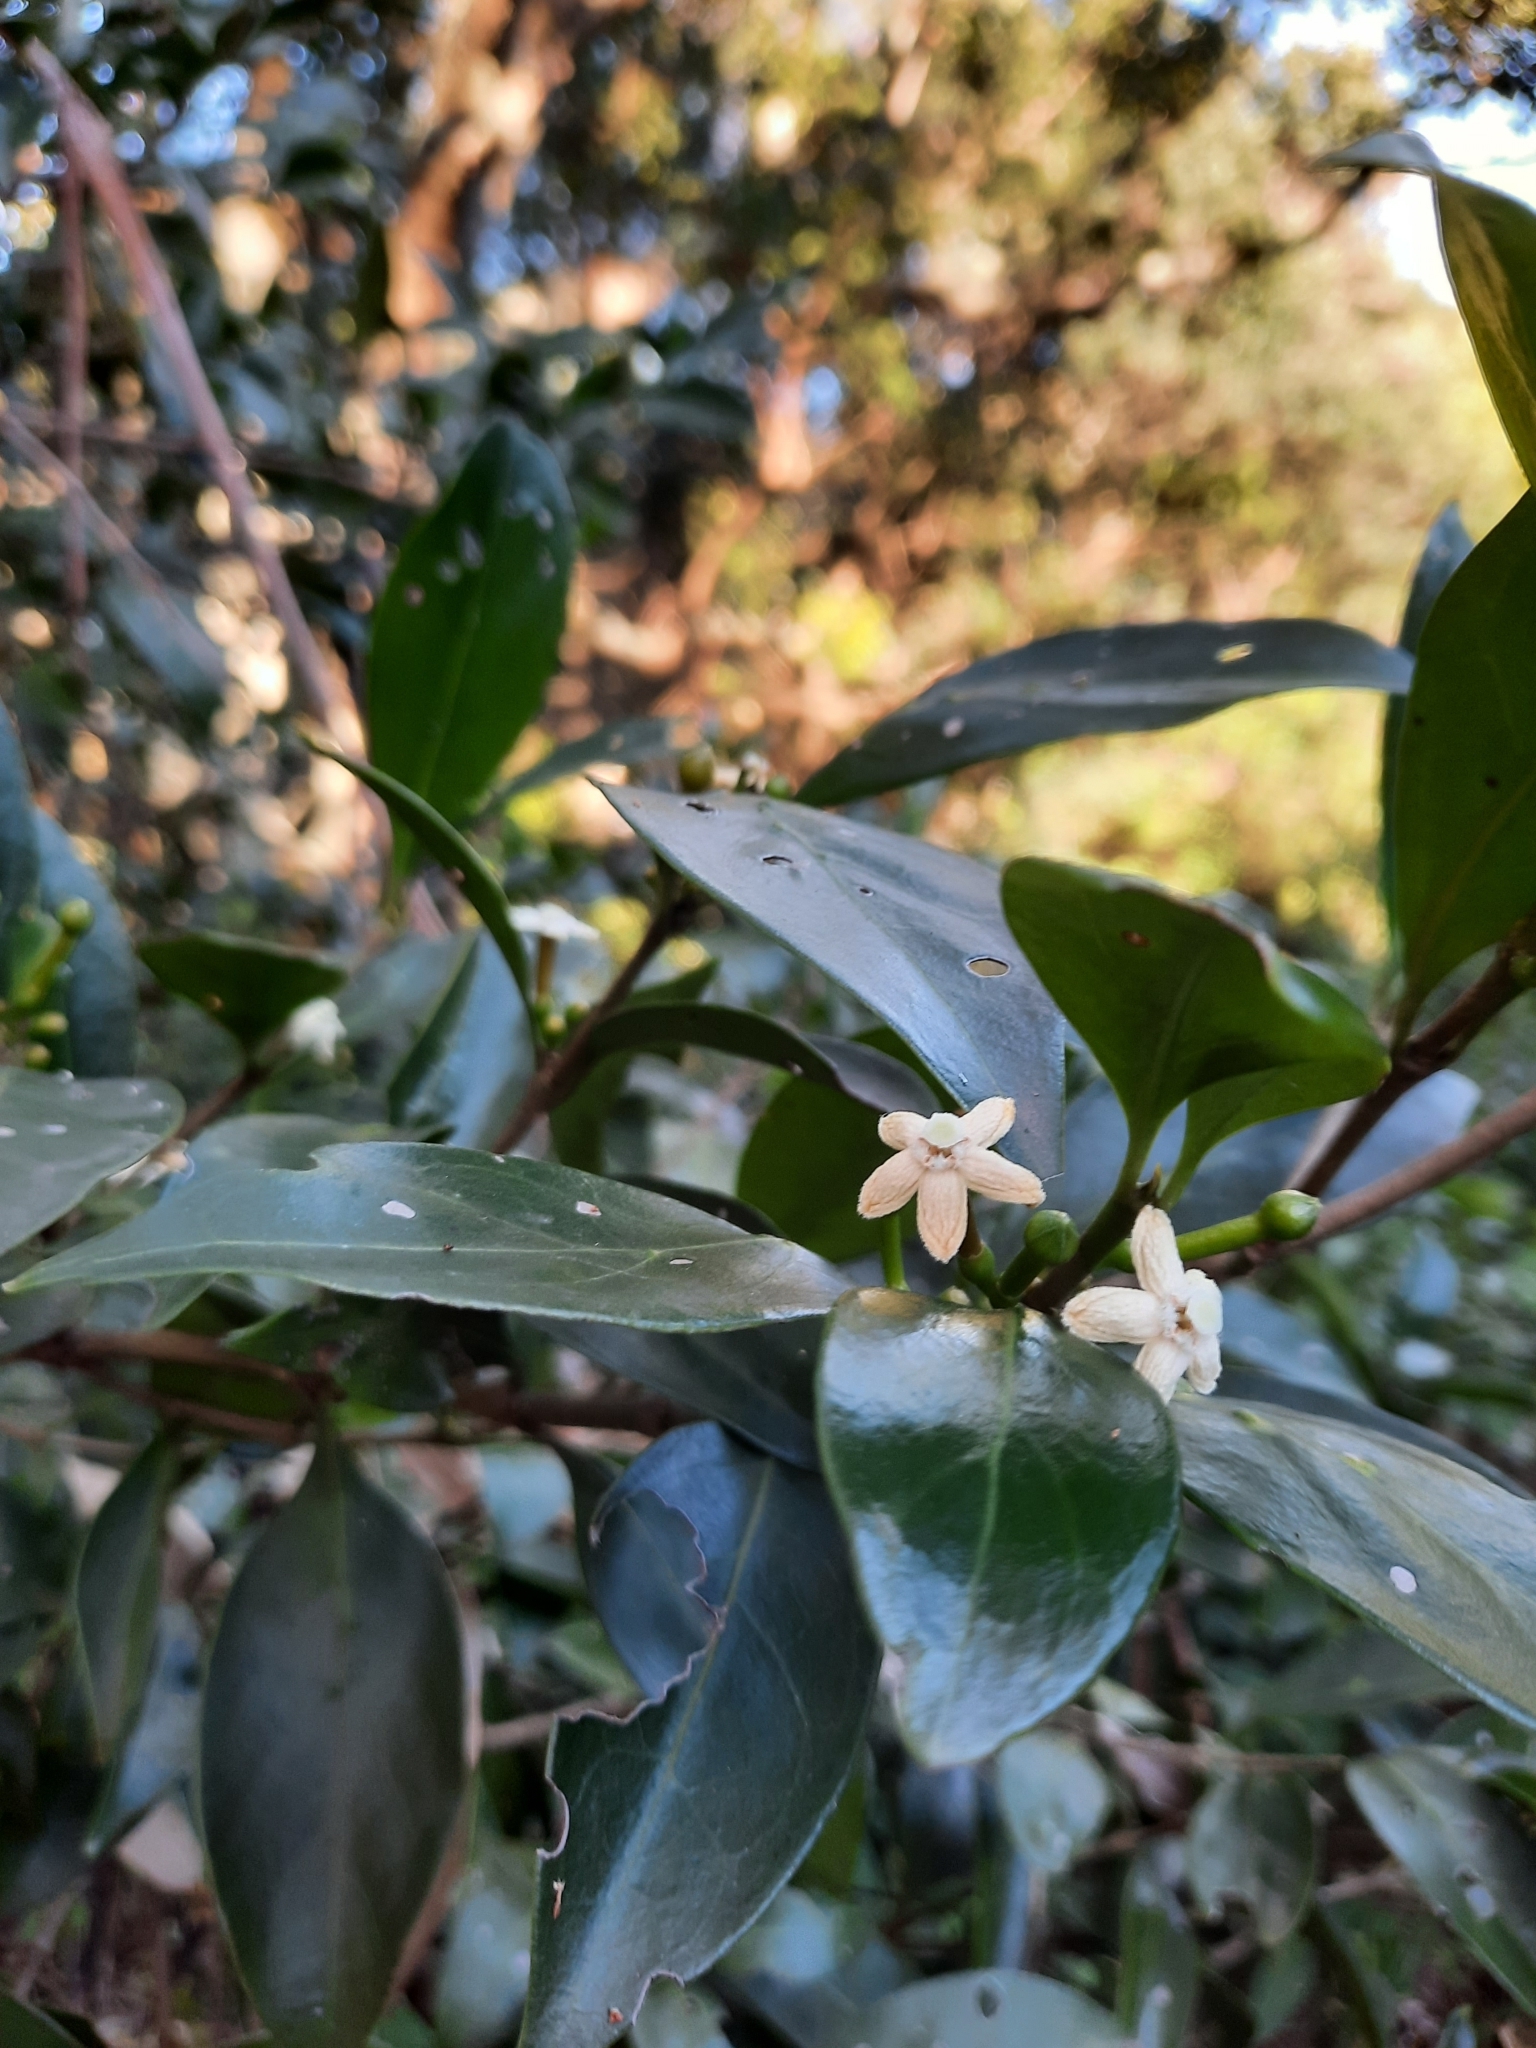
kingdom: Plantae
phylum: Tracheophyta
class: Magnoliopsida
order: Gentianales
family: Rubiaceae
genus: Cyclophyllum
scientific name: Cyclophyllum longipetalum
